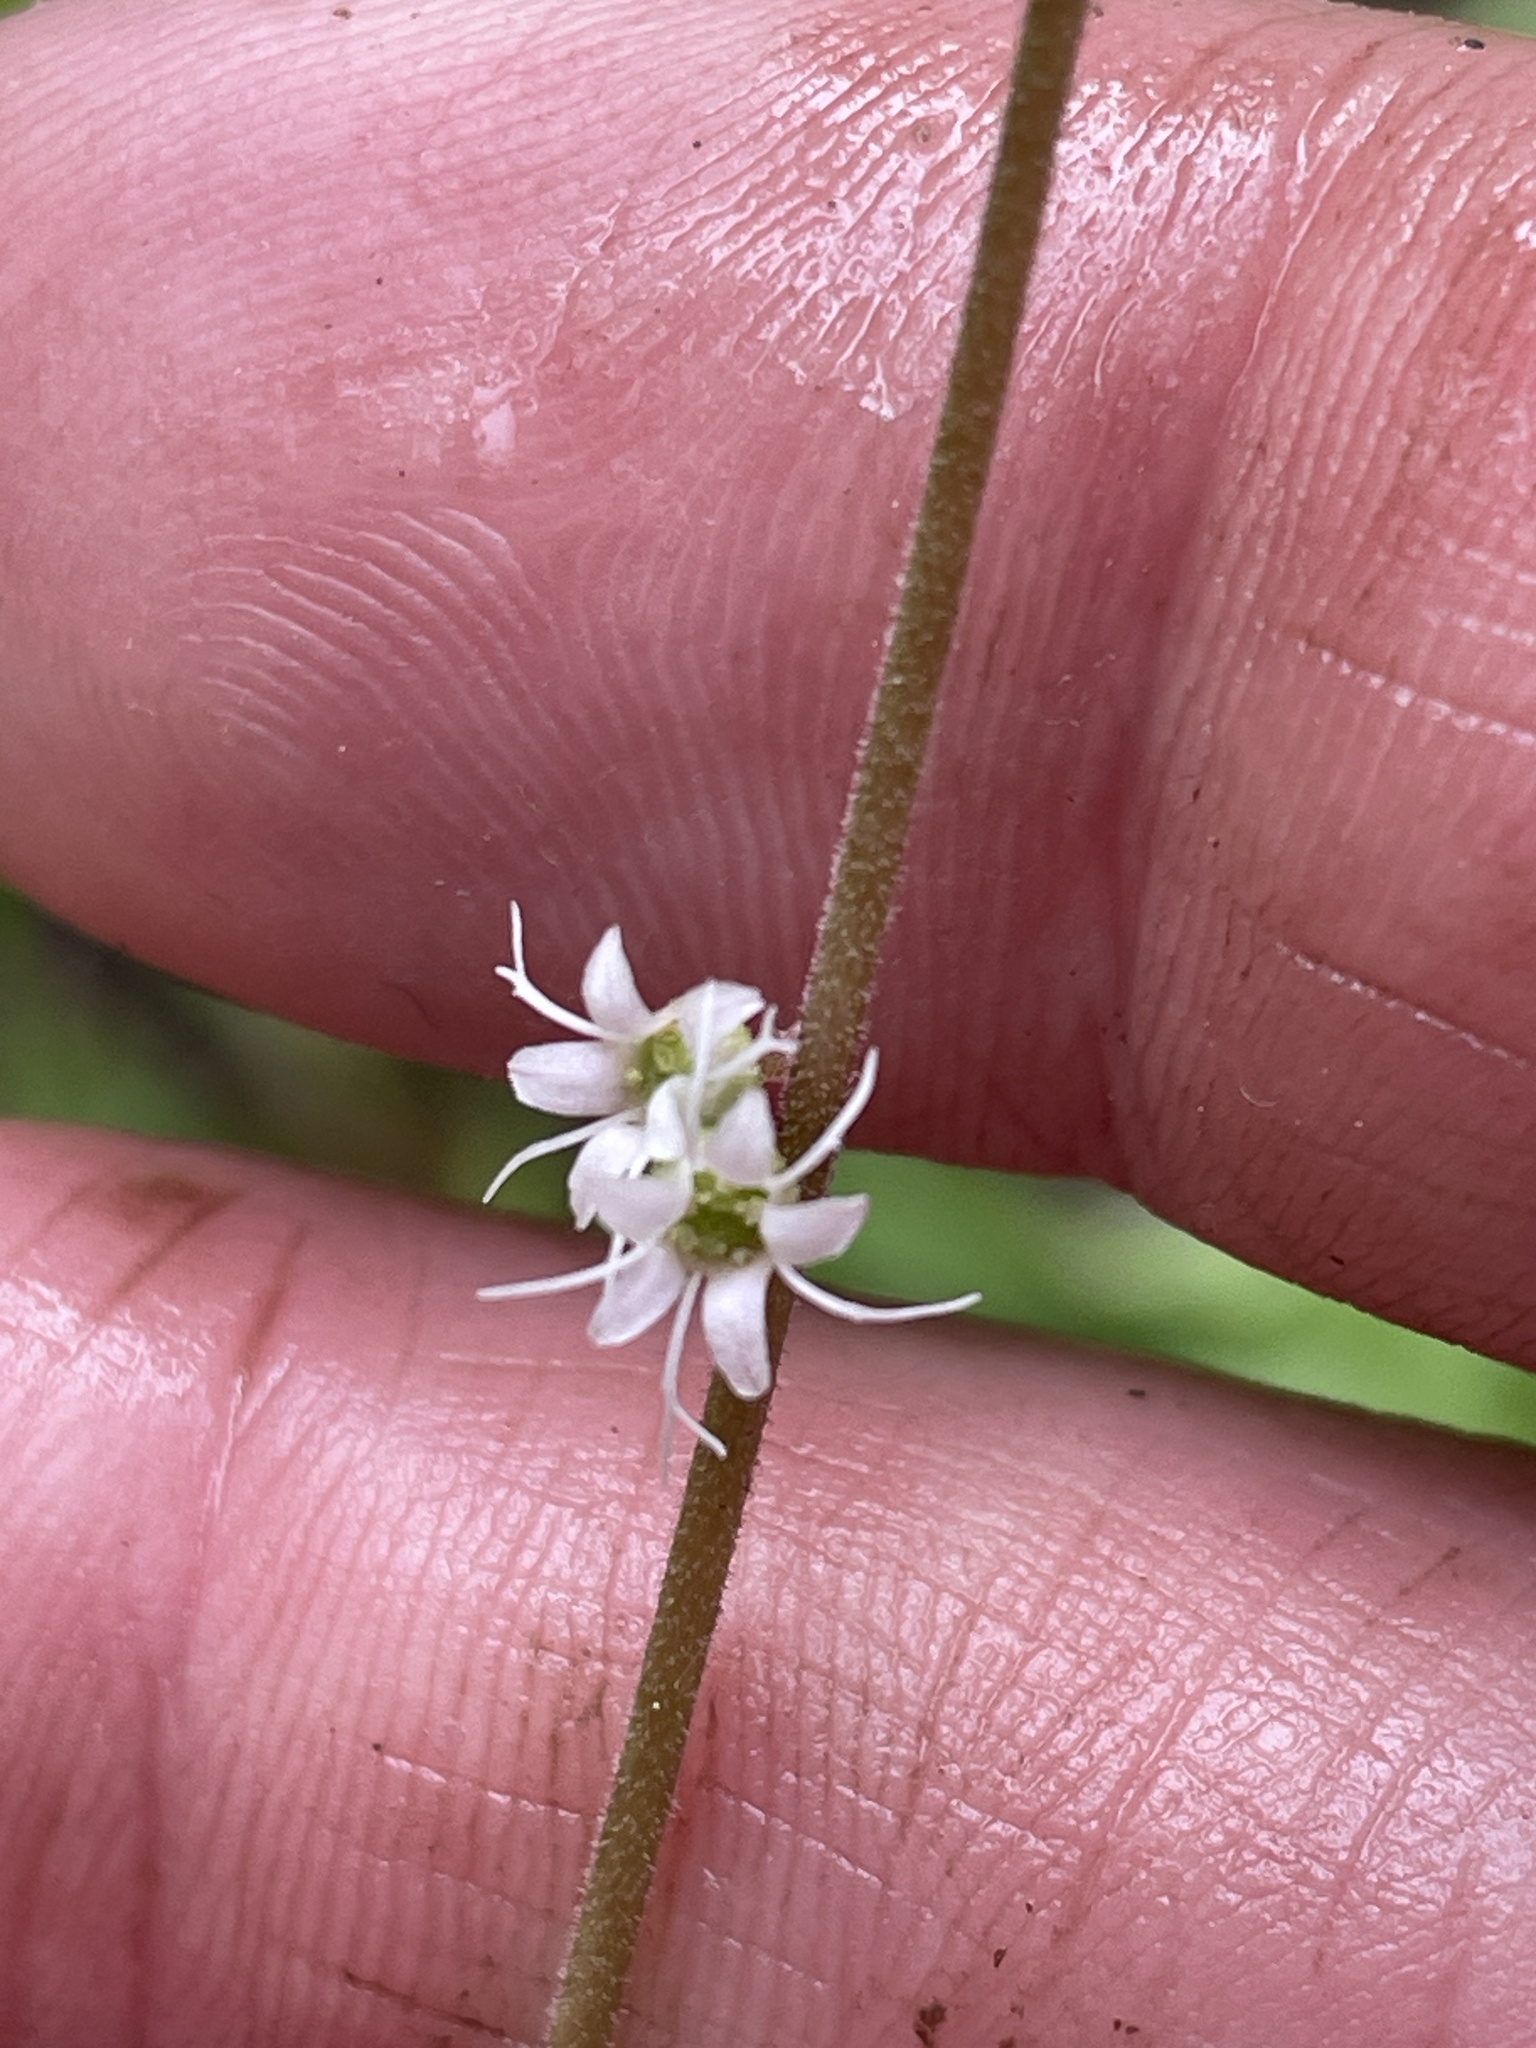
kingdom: Plantae
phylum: Tracheophyta
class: Magnoliopsida
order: Saxifragales
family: Saxifragaceae
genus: Ozomelis
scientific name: Ozomelis stauropetala
